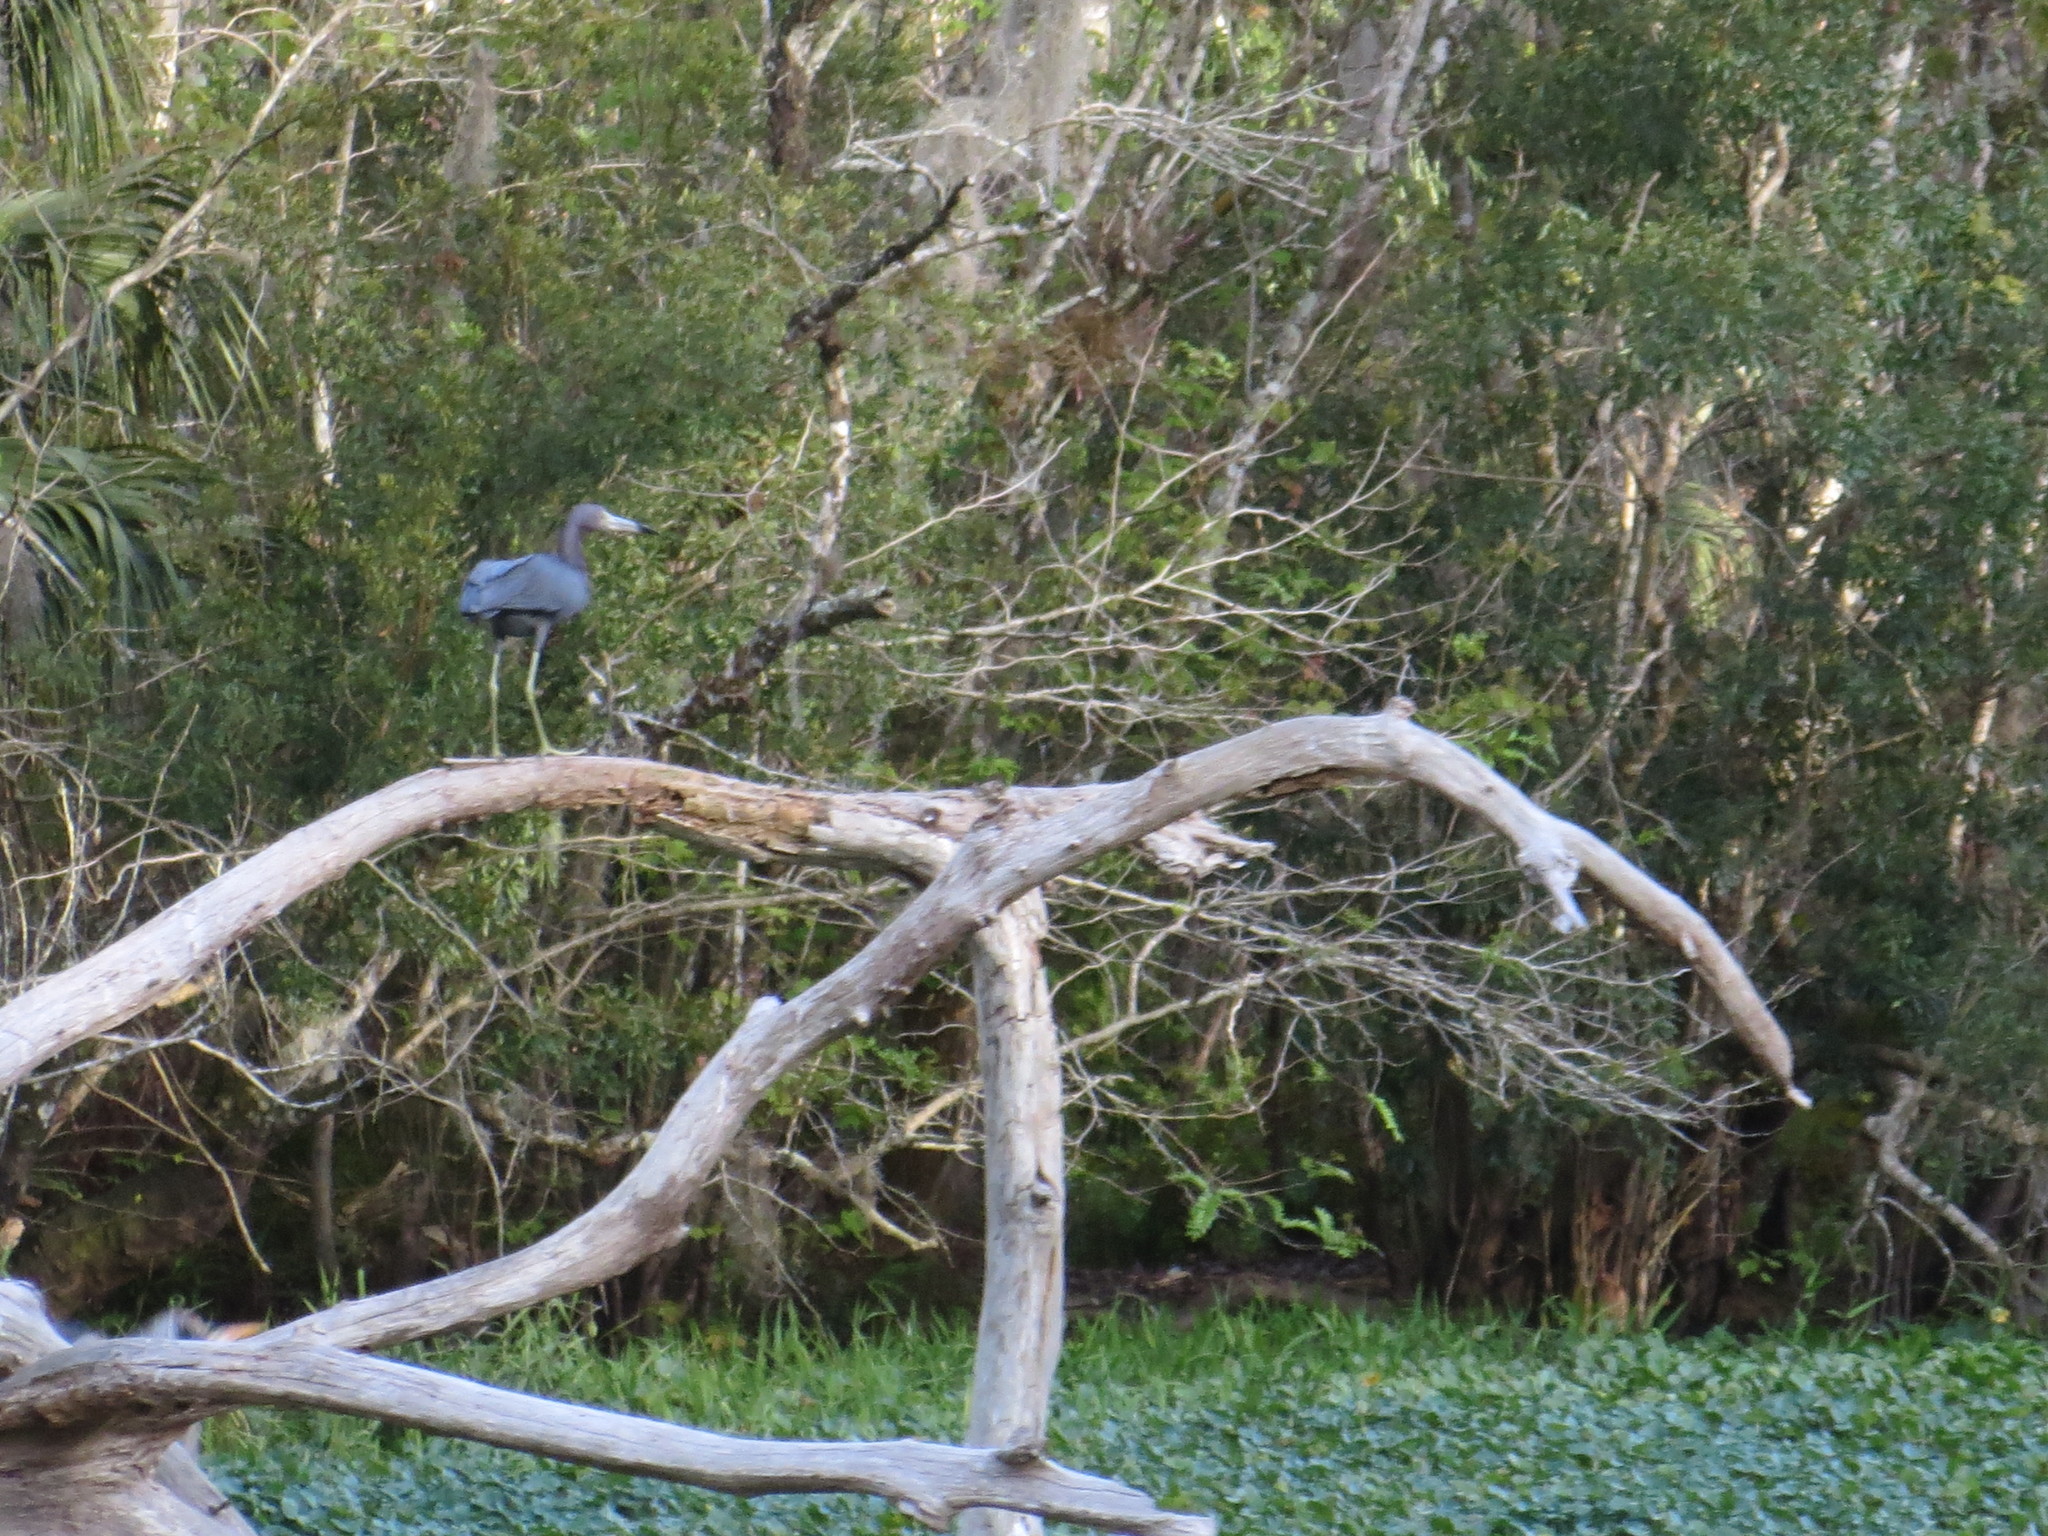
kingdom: Animalia
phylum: Chordata
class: Aves
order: Pelecaniformes
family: Ardeidae
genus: Egretta
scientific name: Egretta caerulea
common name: Little blue heron
